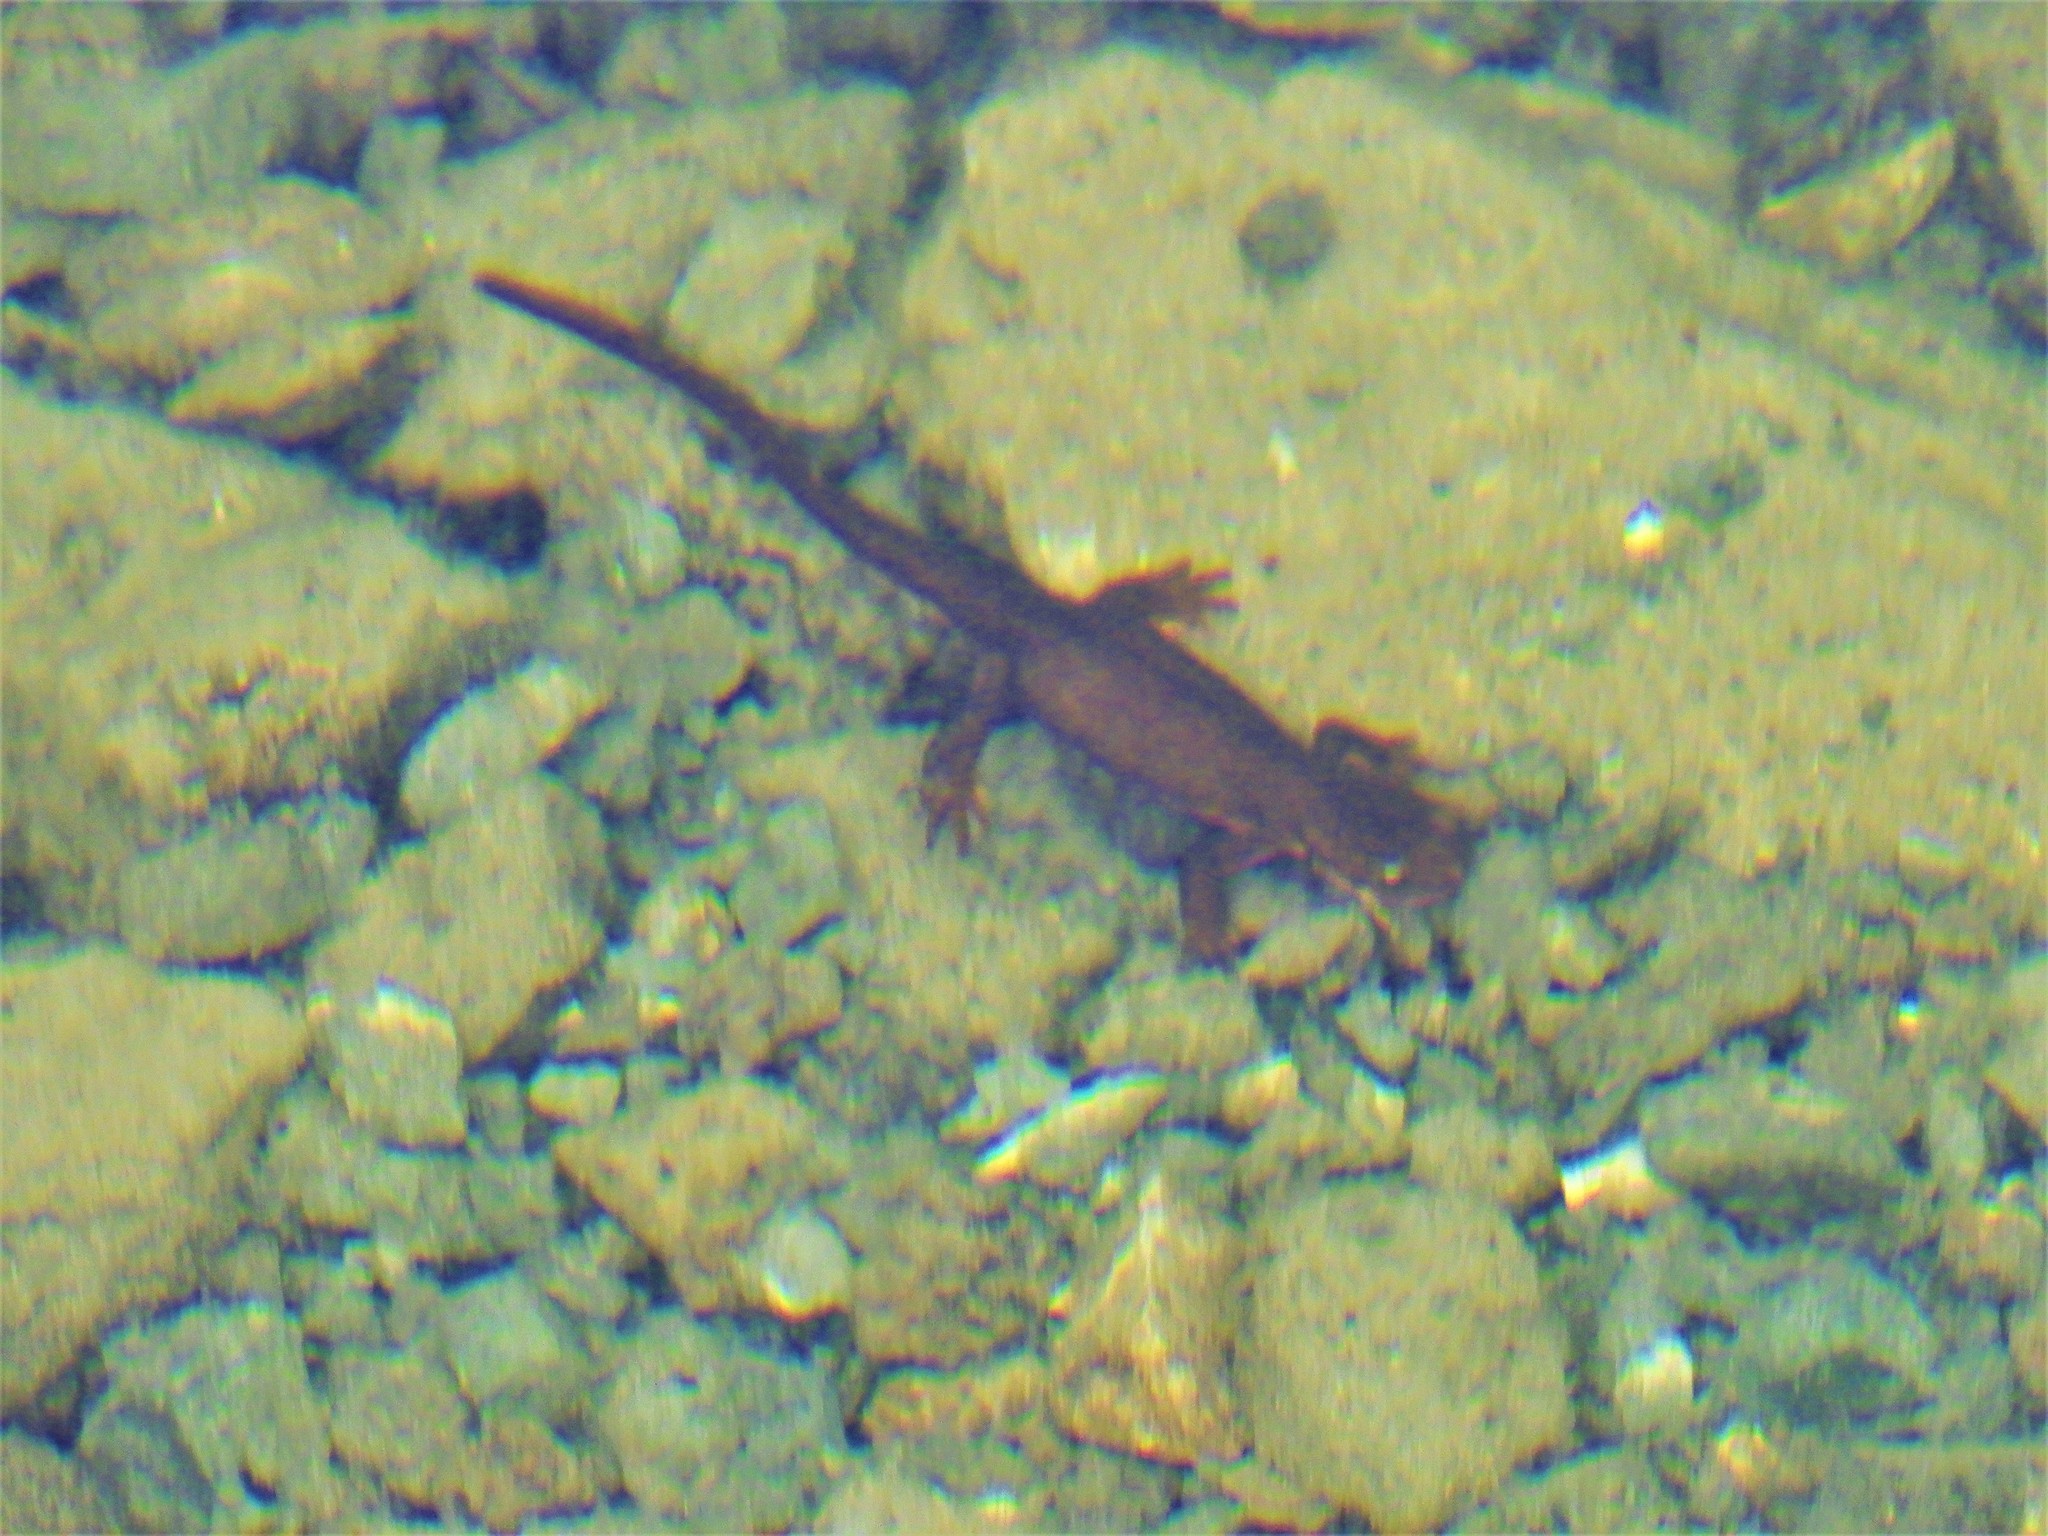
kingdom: Animalia
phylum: Chordata
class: Amphibia
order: Caudata
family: Salamandridae
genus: Taricha
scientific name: Taricha granulosa
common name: Roughskin newt
